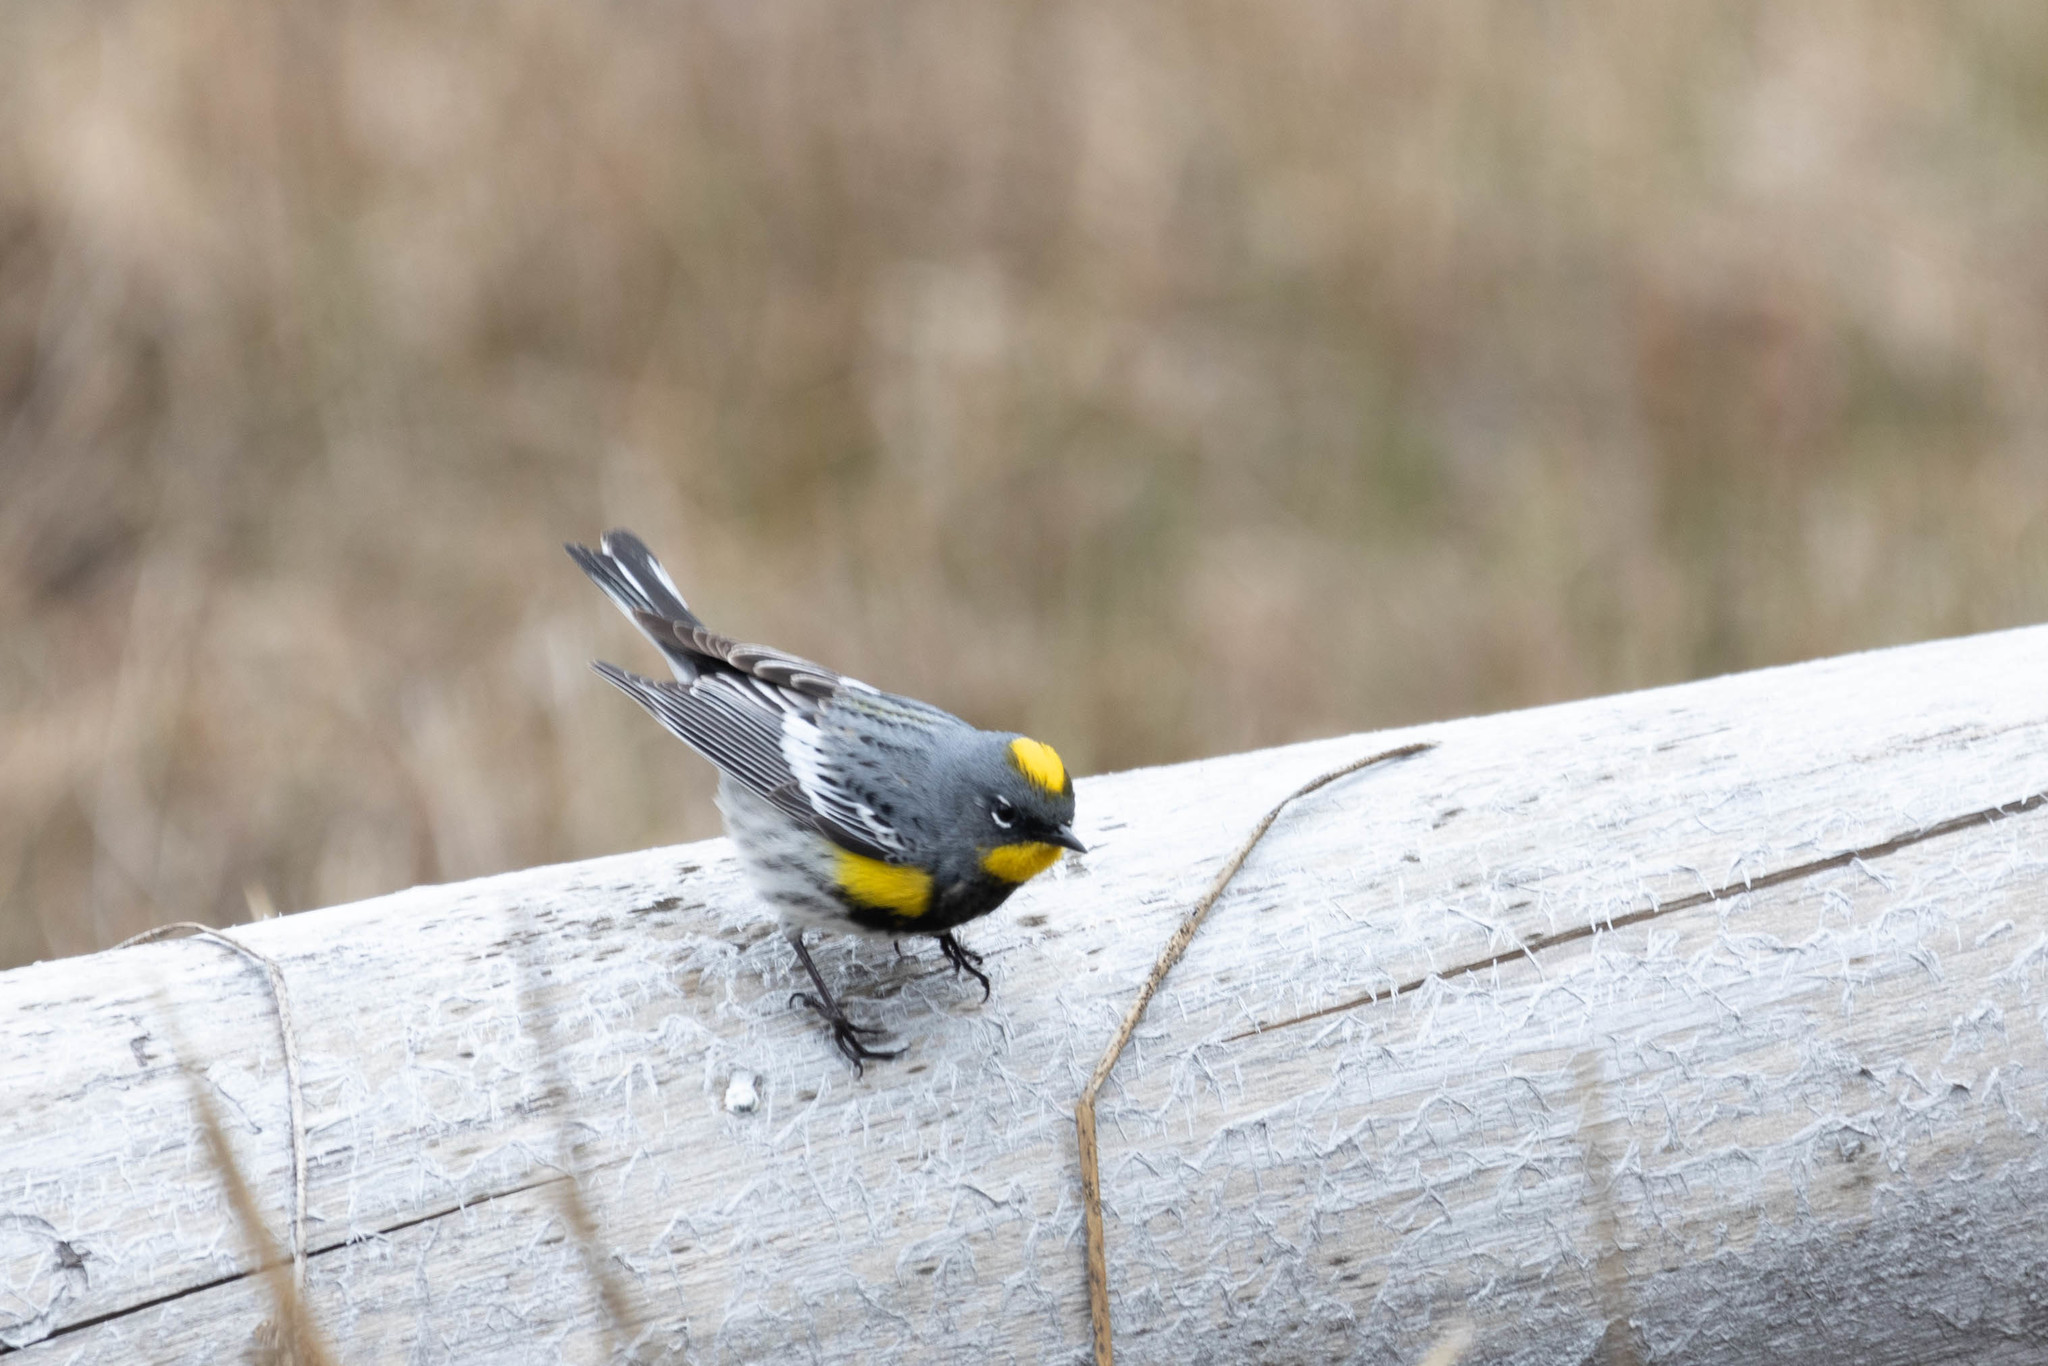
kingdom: Animalia
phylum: Chordata
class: Aves
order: Passeriformes
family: Parulidae
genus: Setophaga
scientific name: Setophaga auduboni
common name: Audubon's warbler
